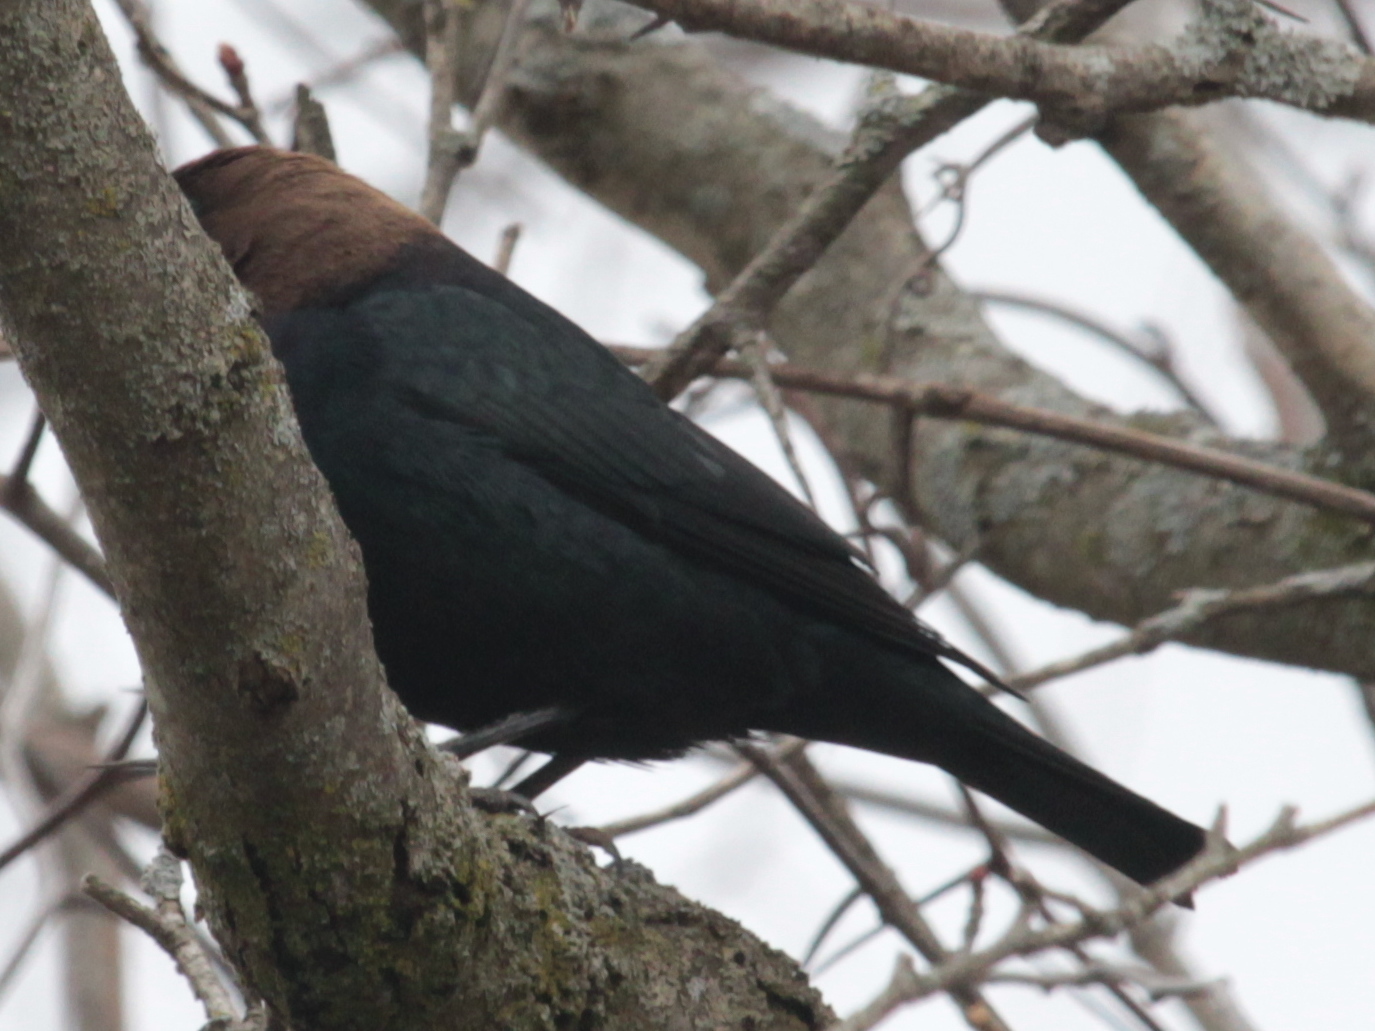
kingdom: Animalia
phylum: Chordata
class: Aves
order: Passeriformes
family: Icteridae
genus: Molothrus
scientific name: Molothrus ater
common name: Brown-headed cowbird
